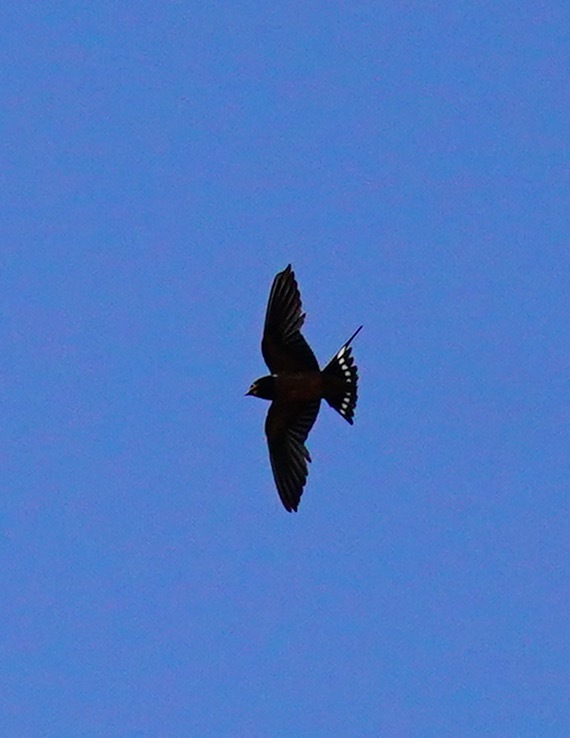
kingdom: Animalia
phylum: Chordata
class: Aves
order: Passeriformes
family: Hirundinidae
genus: Hirundo
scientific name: Hirundo rustica
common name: Barn swallow
